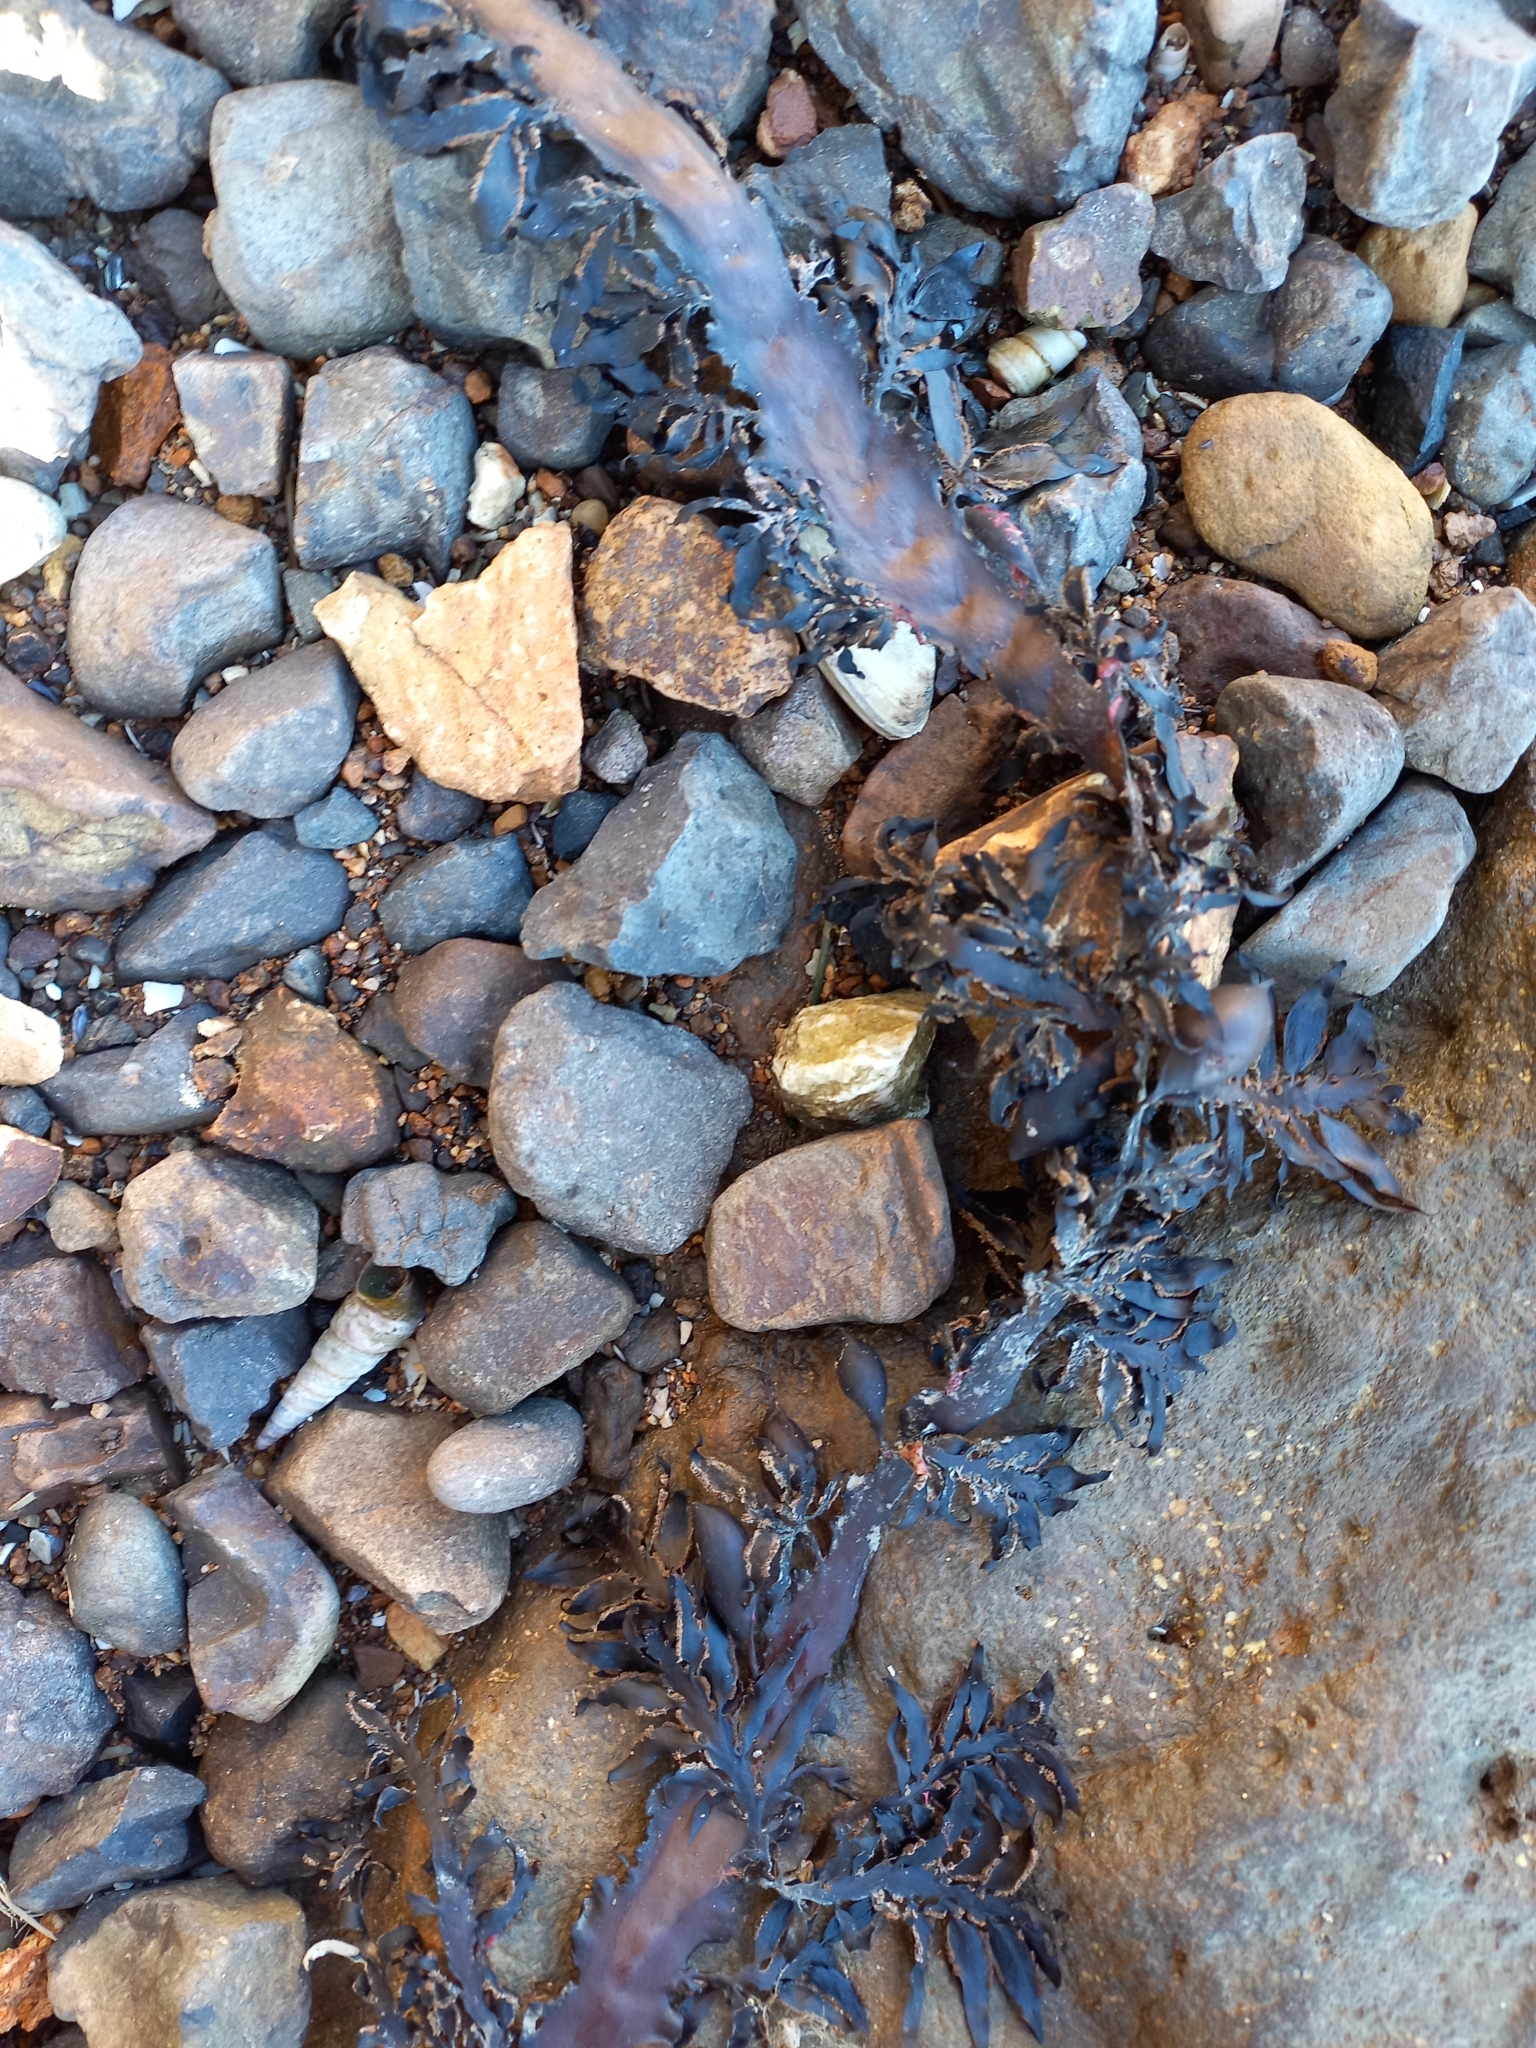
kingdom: Chromista
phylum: Ochrophyta
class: Phaeophyceae
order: Fucales
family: Sargassaceae
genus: Carpophyllum
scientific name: Carpophyllum maschalocarpum
